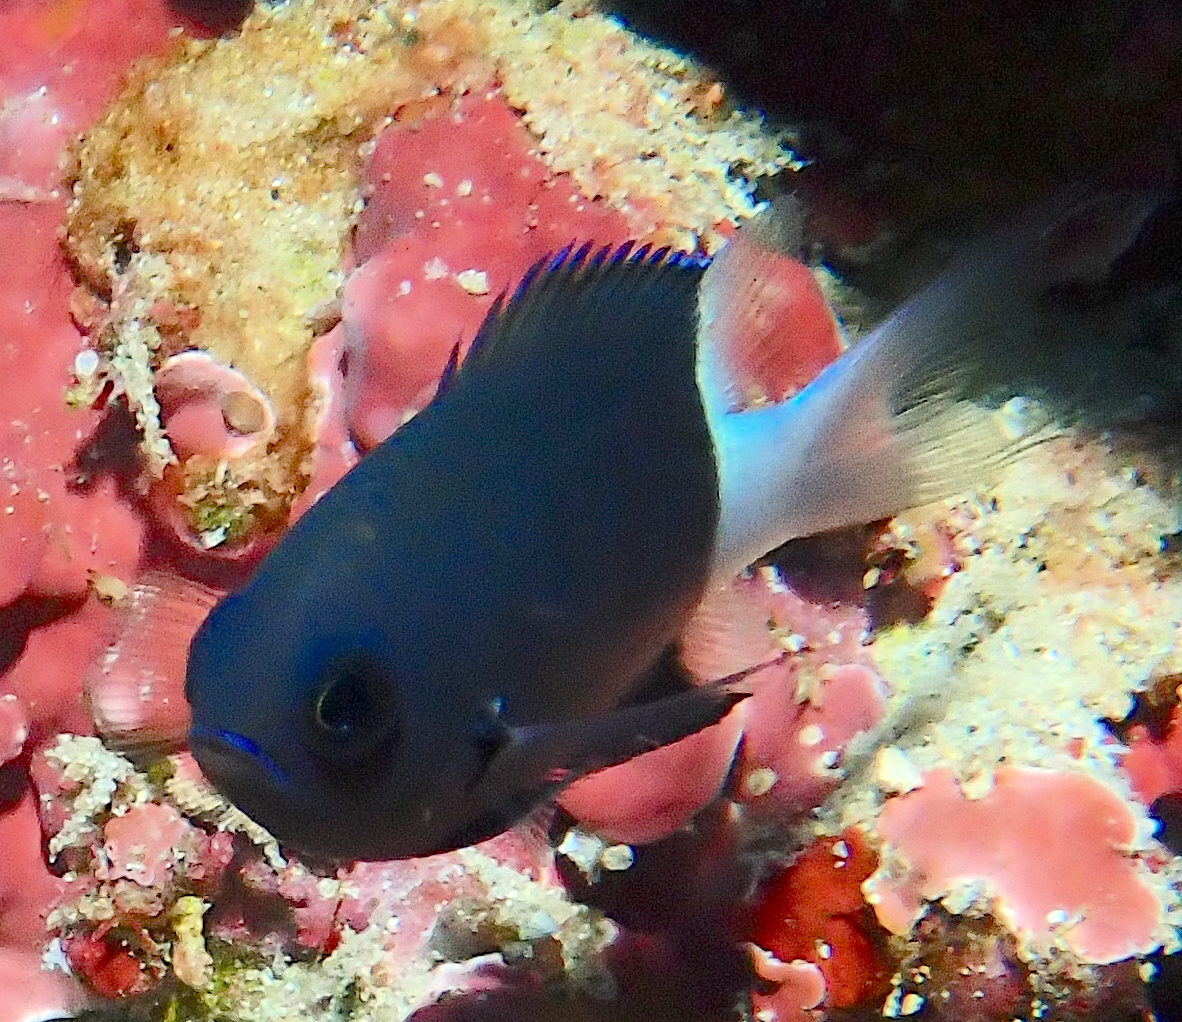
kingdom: Animalia
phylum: Chordata
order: Perciformes
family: Pomacentridae
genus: Pycnochromis
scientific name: Pycnochromis margaritifer
